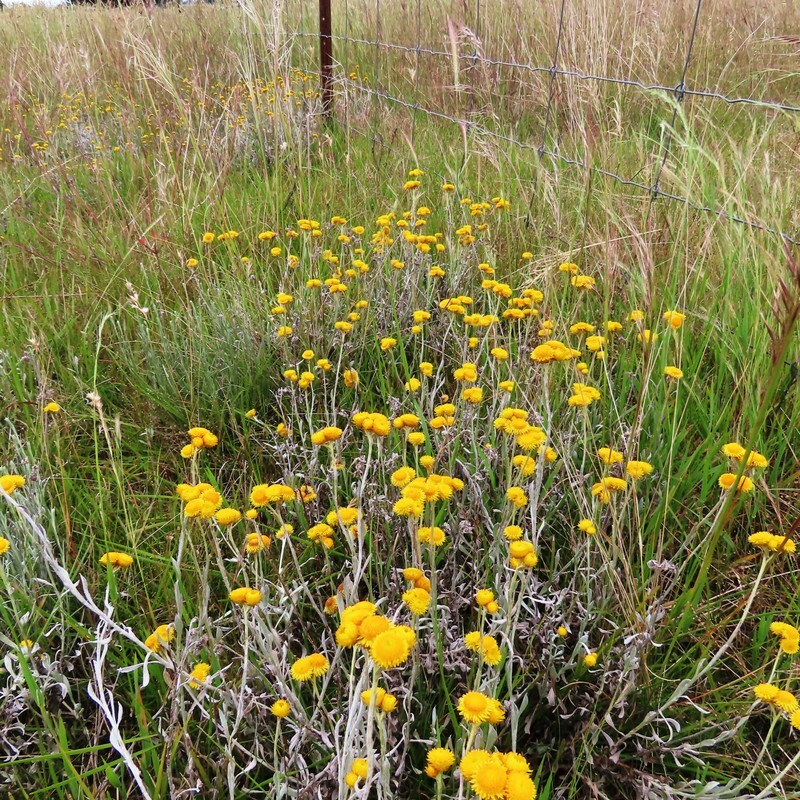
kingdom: Plantae
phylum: Tracheophyta
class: Magnoliopsida
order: Asterales
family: Asteraceae
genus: Chrysocephalum
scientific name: Chrysocephalum apiculatum
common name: Common everlasting
